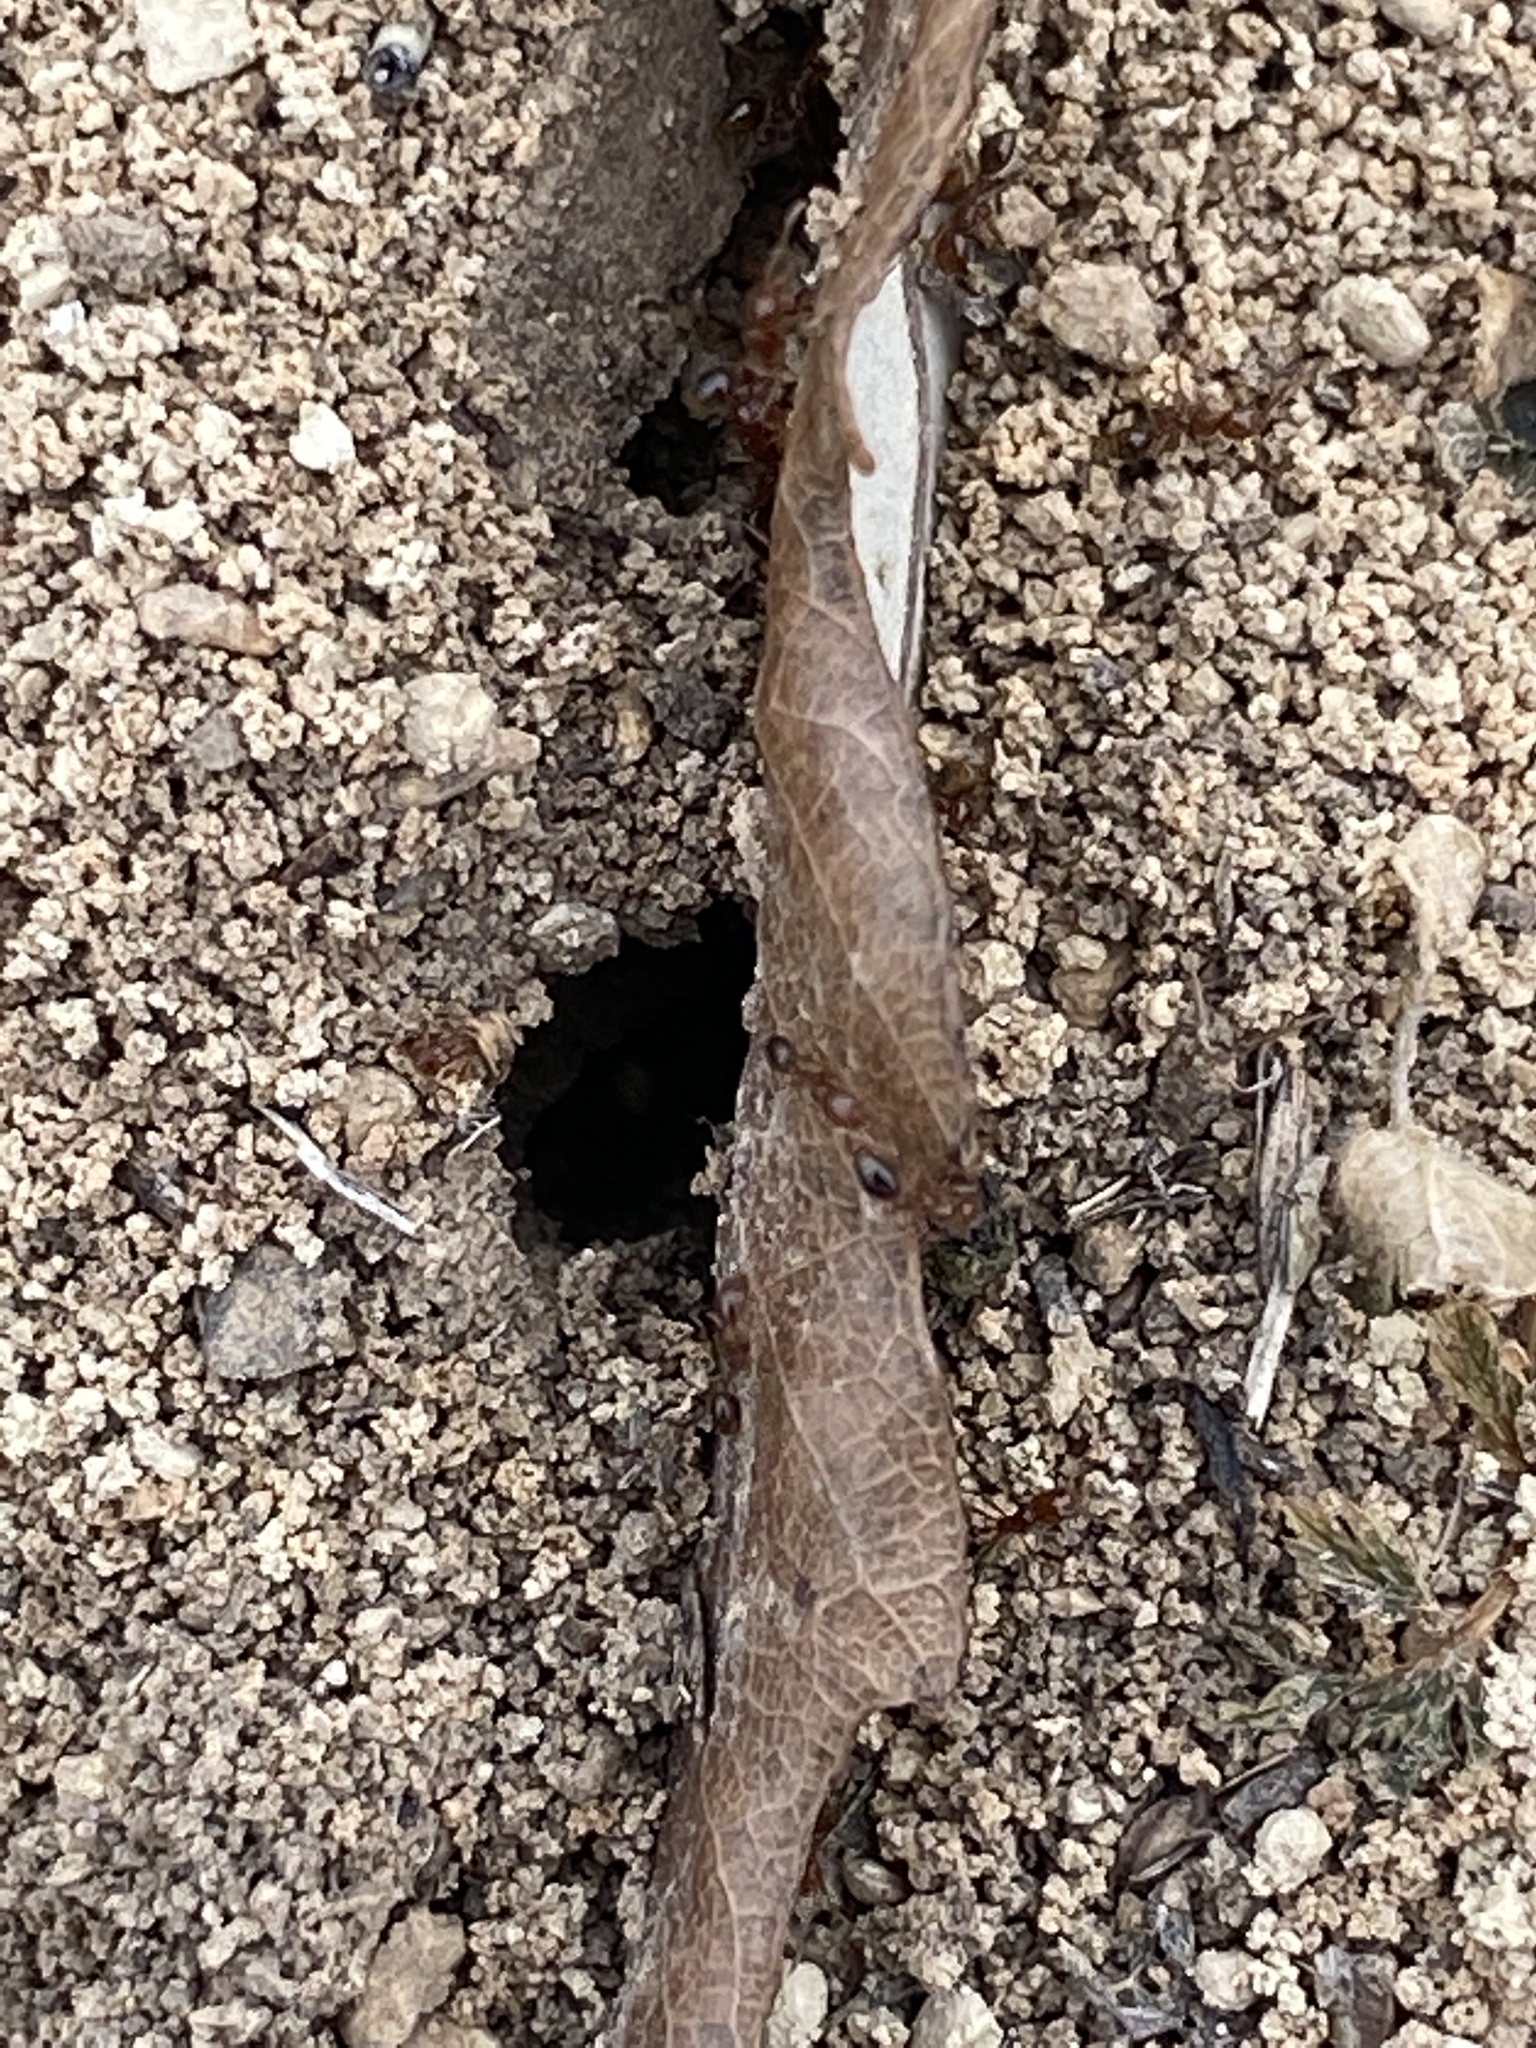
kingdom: Animalia
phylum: Arthropoda
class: Insecta
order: Hymenoptera
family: Formicidae
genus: Solenopsis
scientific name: Solenopsis invicta
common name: Red imported fire ant
